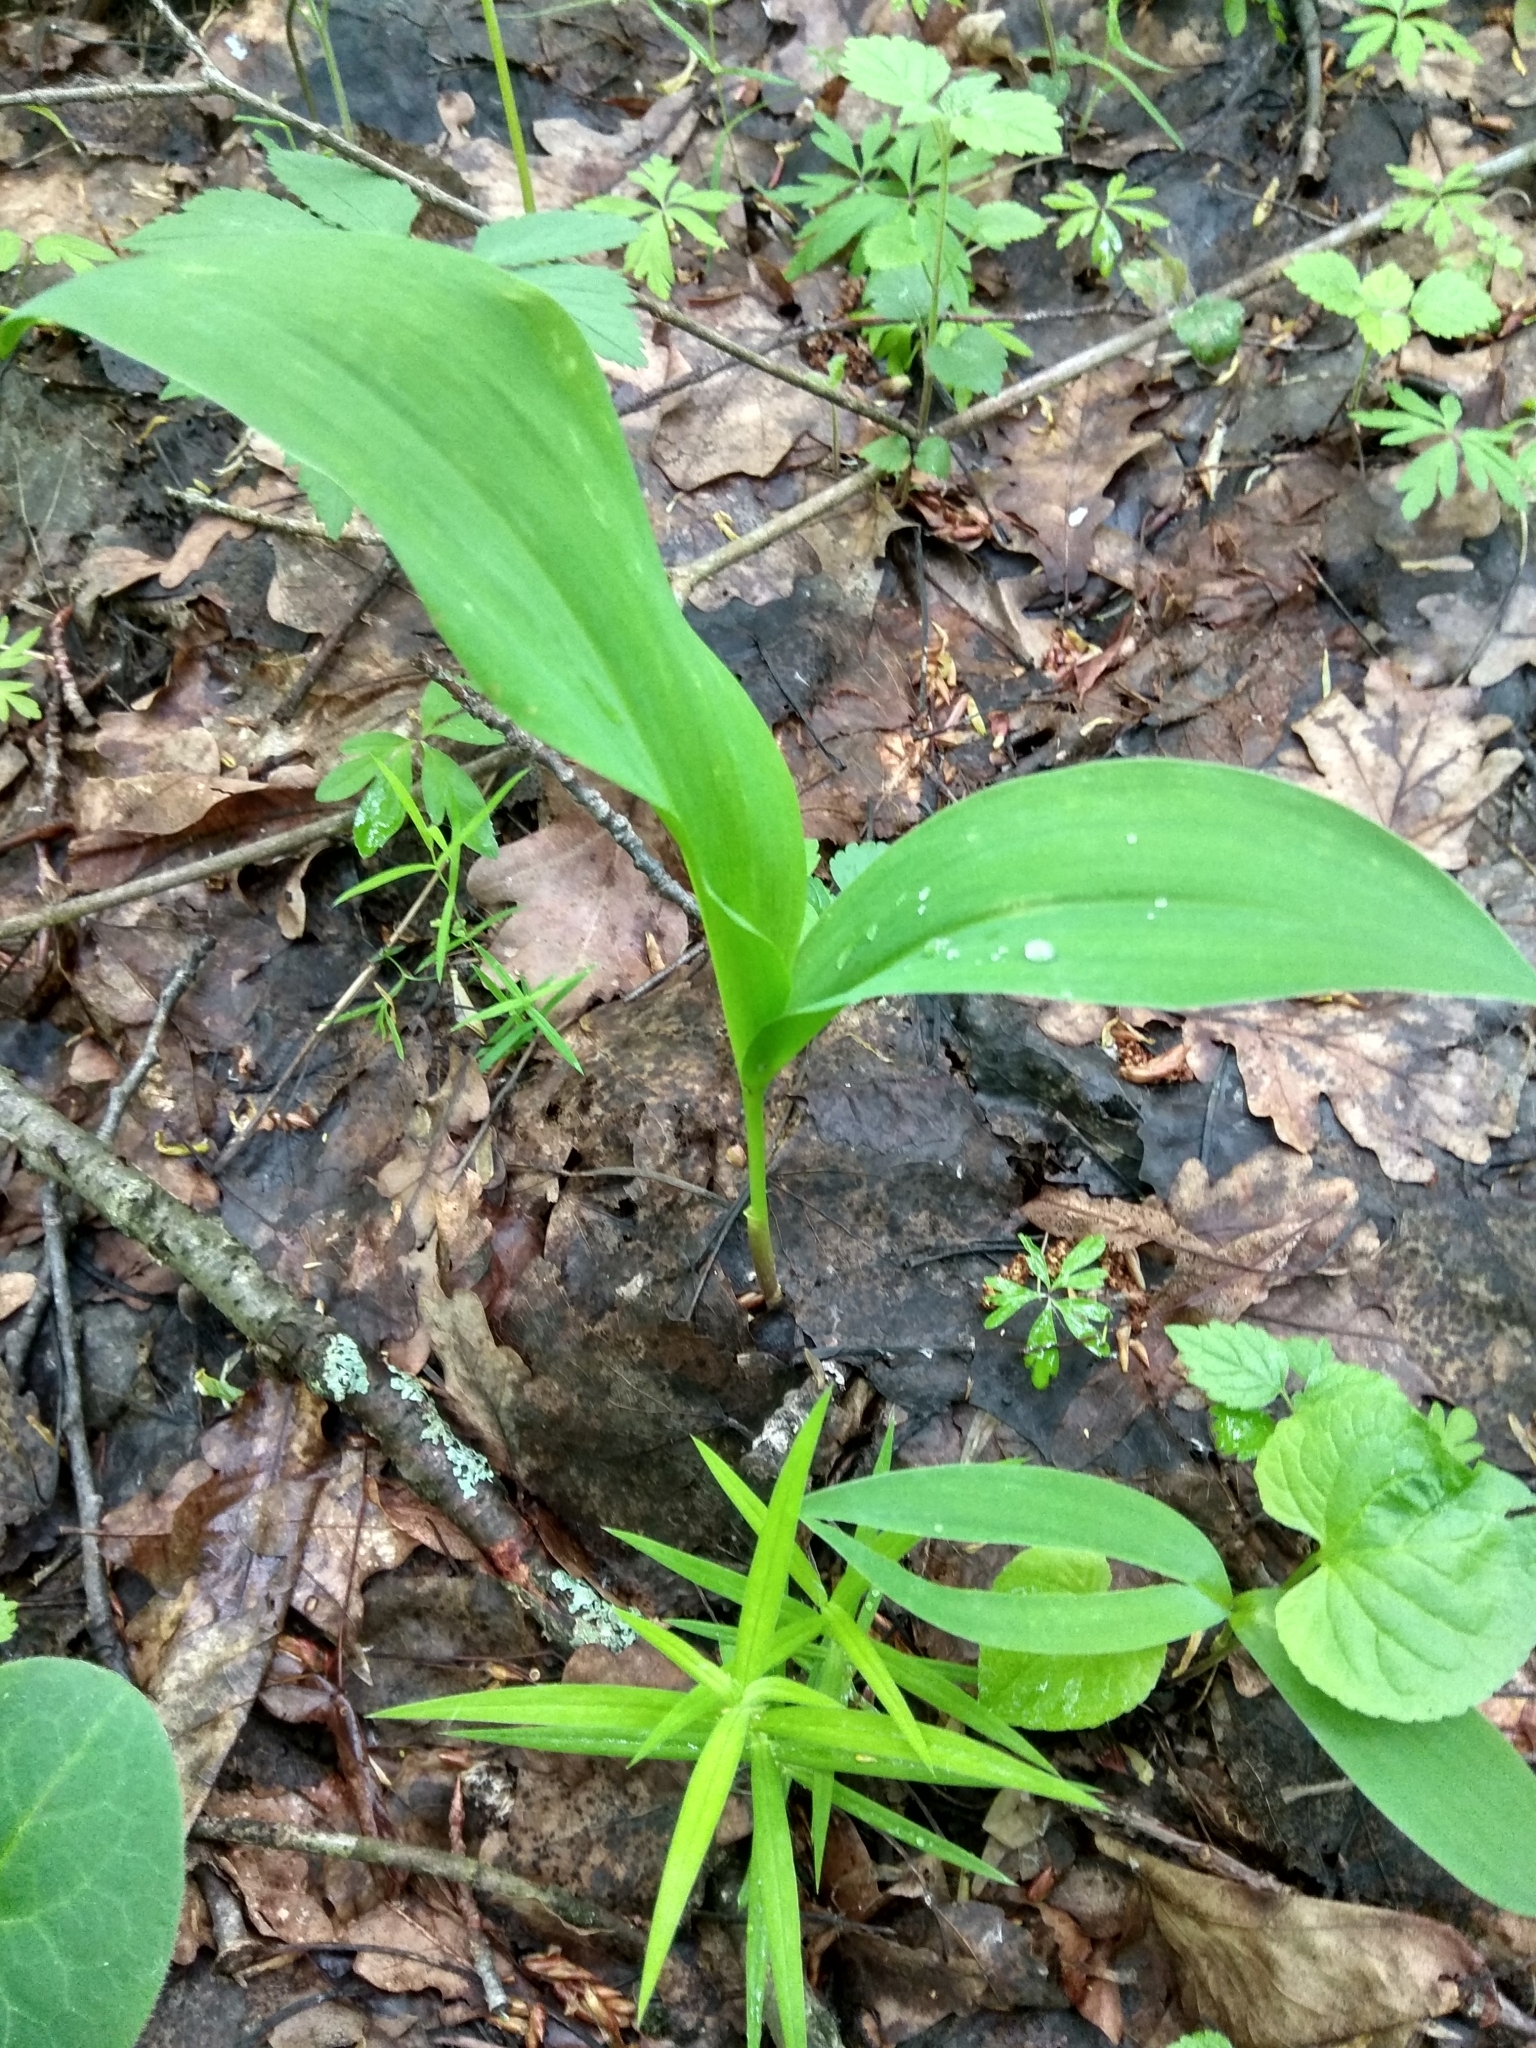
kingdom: Plantae
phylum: Tracheophyta
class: Liliopsida
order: Asparagales
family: Asparagaceae
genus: Convallaria
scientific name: Convallaria majalis
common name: Lily-of-the-valley
